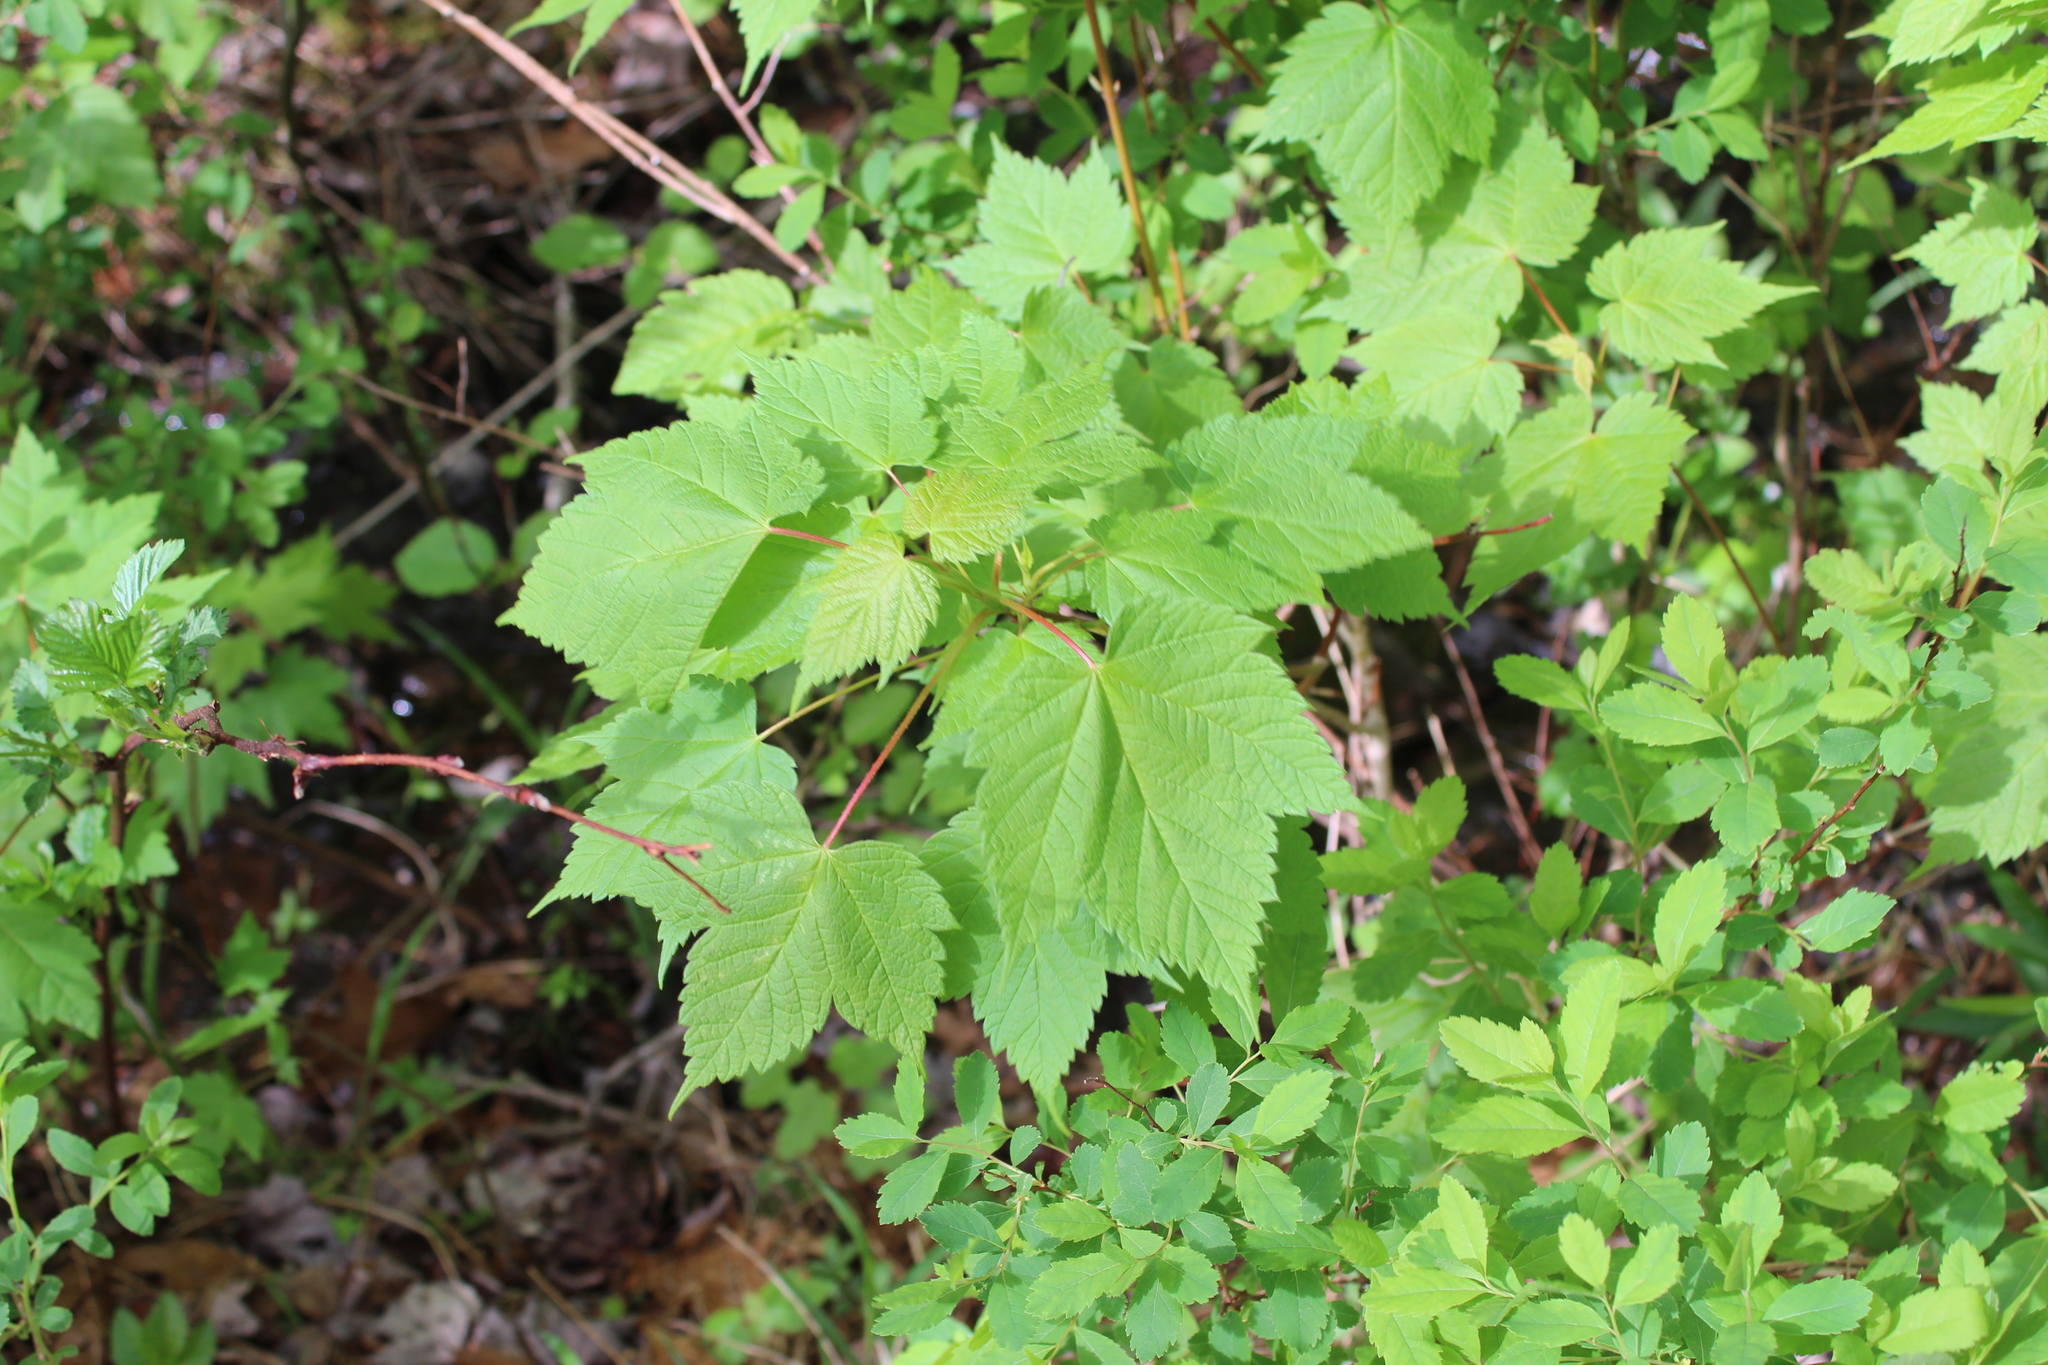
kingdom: Plantae
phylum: Tracheophyta
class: Magnoliopsida
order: Sapindales
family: Sapindaceae
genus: Acer
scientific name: Acer spicatum
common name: Mountain maple
